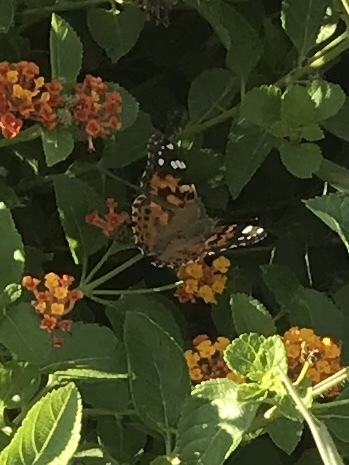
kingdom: Animalia
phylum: Arthropoda
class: Insecta
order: Lepidoptera
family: Nymphalidae
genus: Vanessa
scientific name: Vanessa cardui
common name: Painted lady
